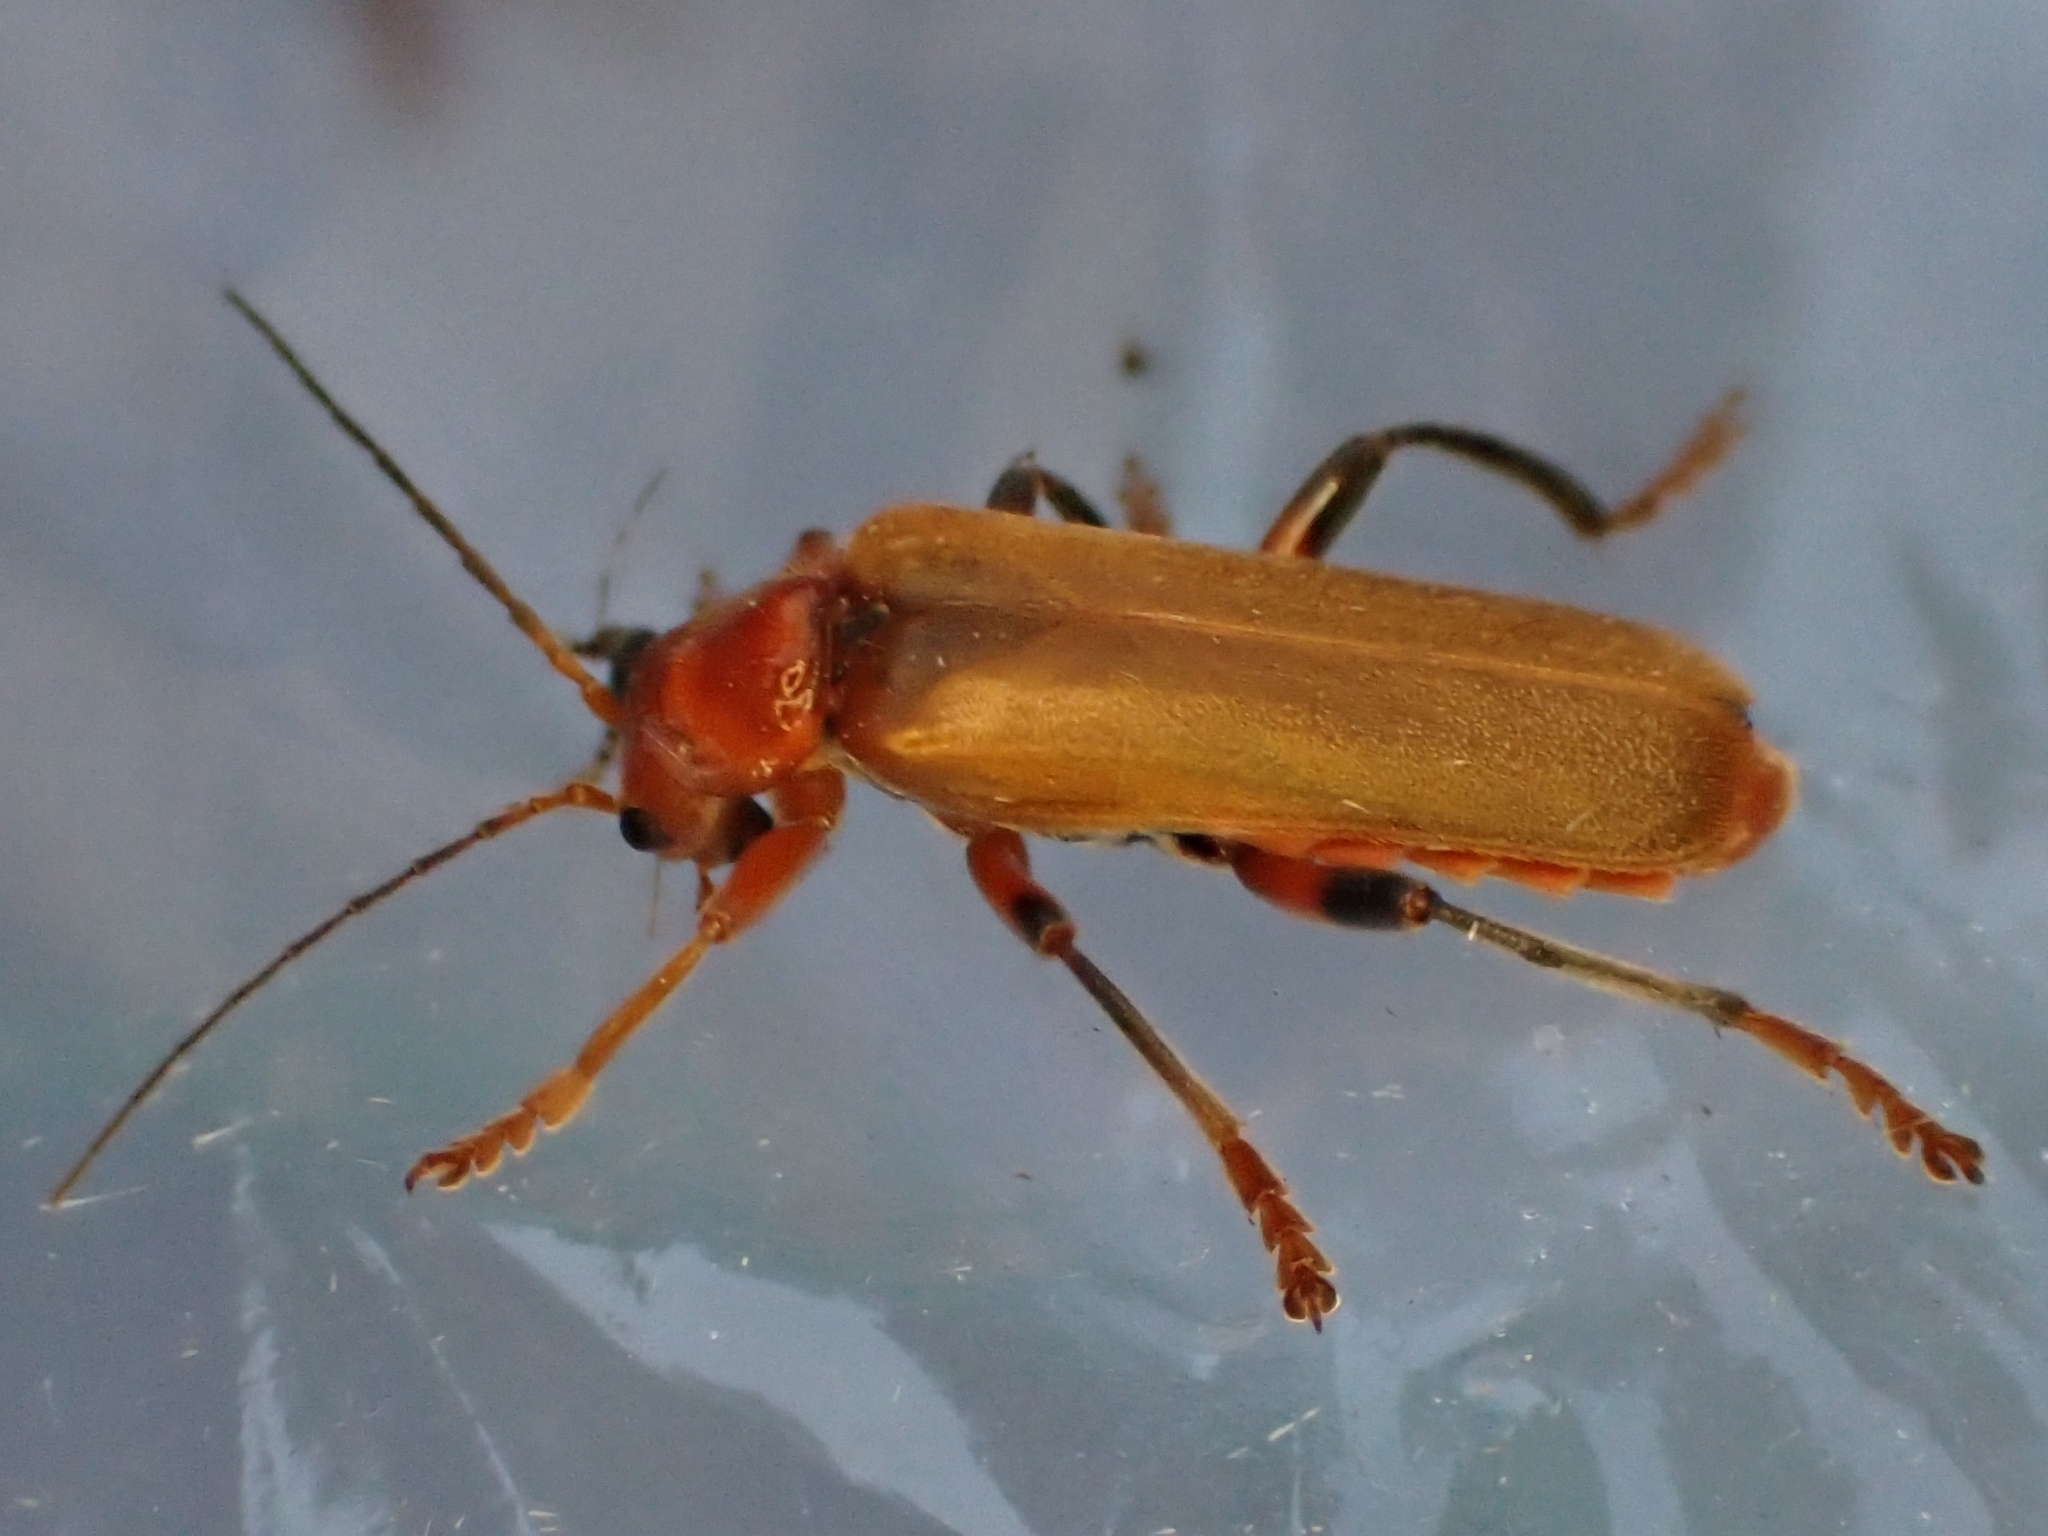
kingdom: Animalia
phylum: Arthropoda
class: Insecta
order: Coleoptera
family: Cantharidae
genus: Cantharis
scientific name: Cantharis livida
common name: Livid soldier beetle
